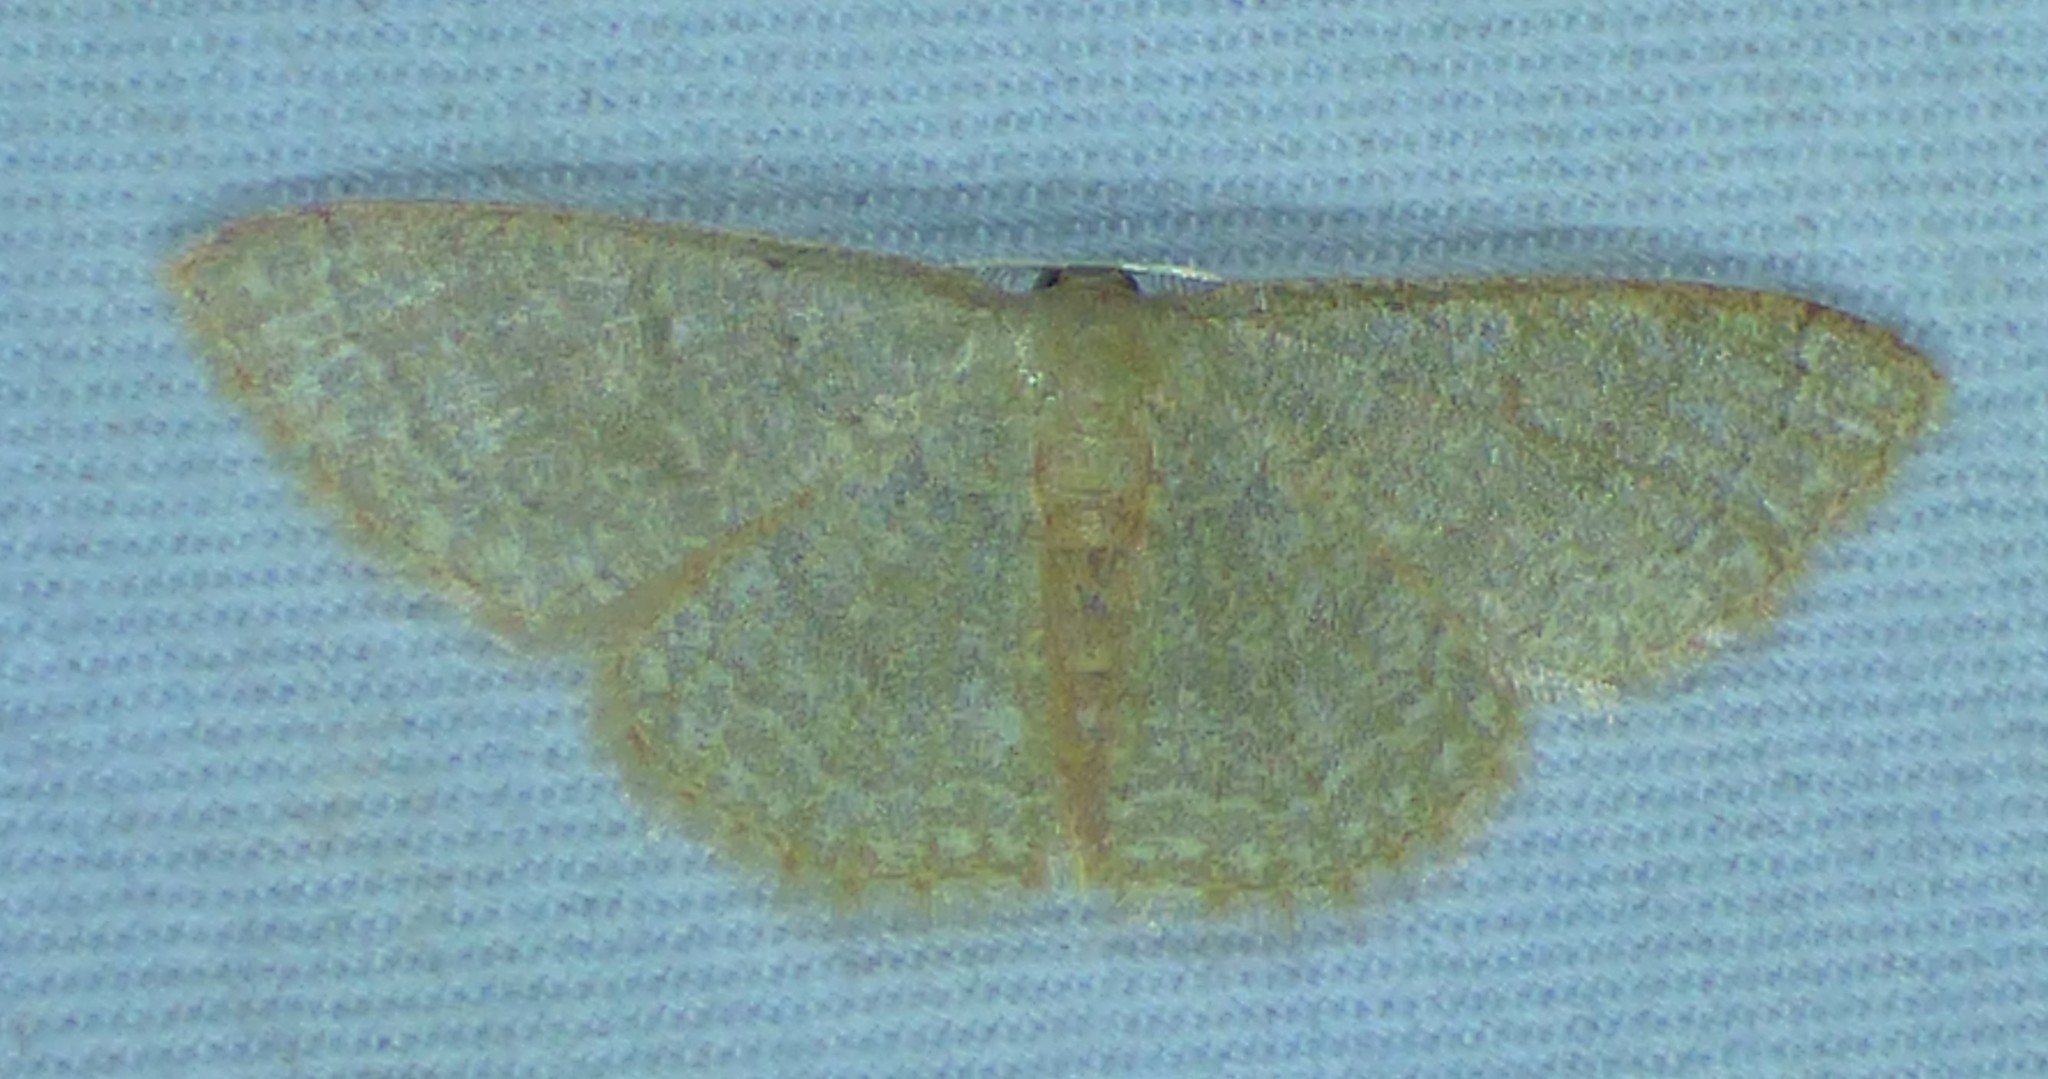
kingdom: Animalia
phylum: Arthropoda
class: Insecta
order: Lepidoptera
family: Geometridae
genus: Pleuroprucha
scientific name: Pleuroprucha insulsaria
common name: Common tan wave
